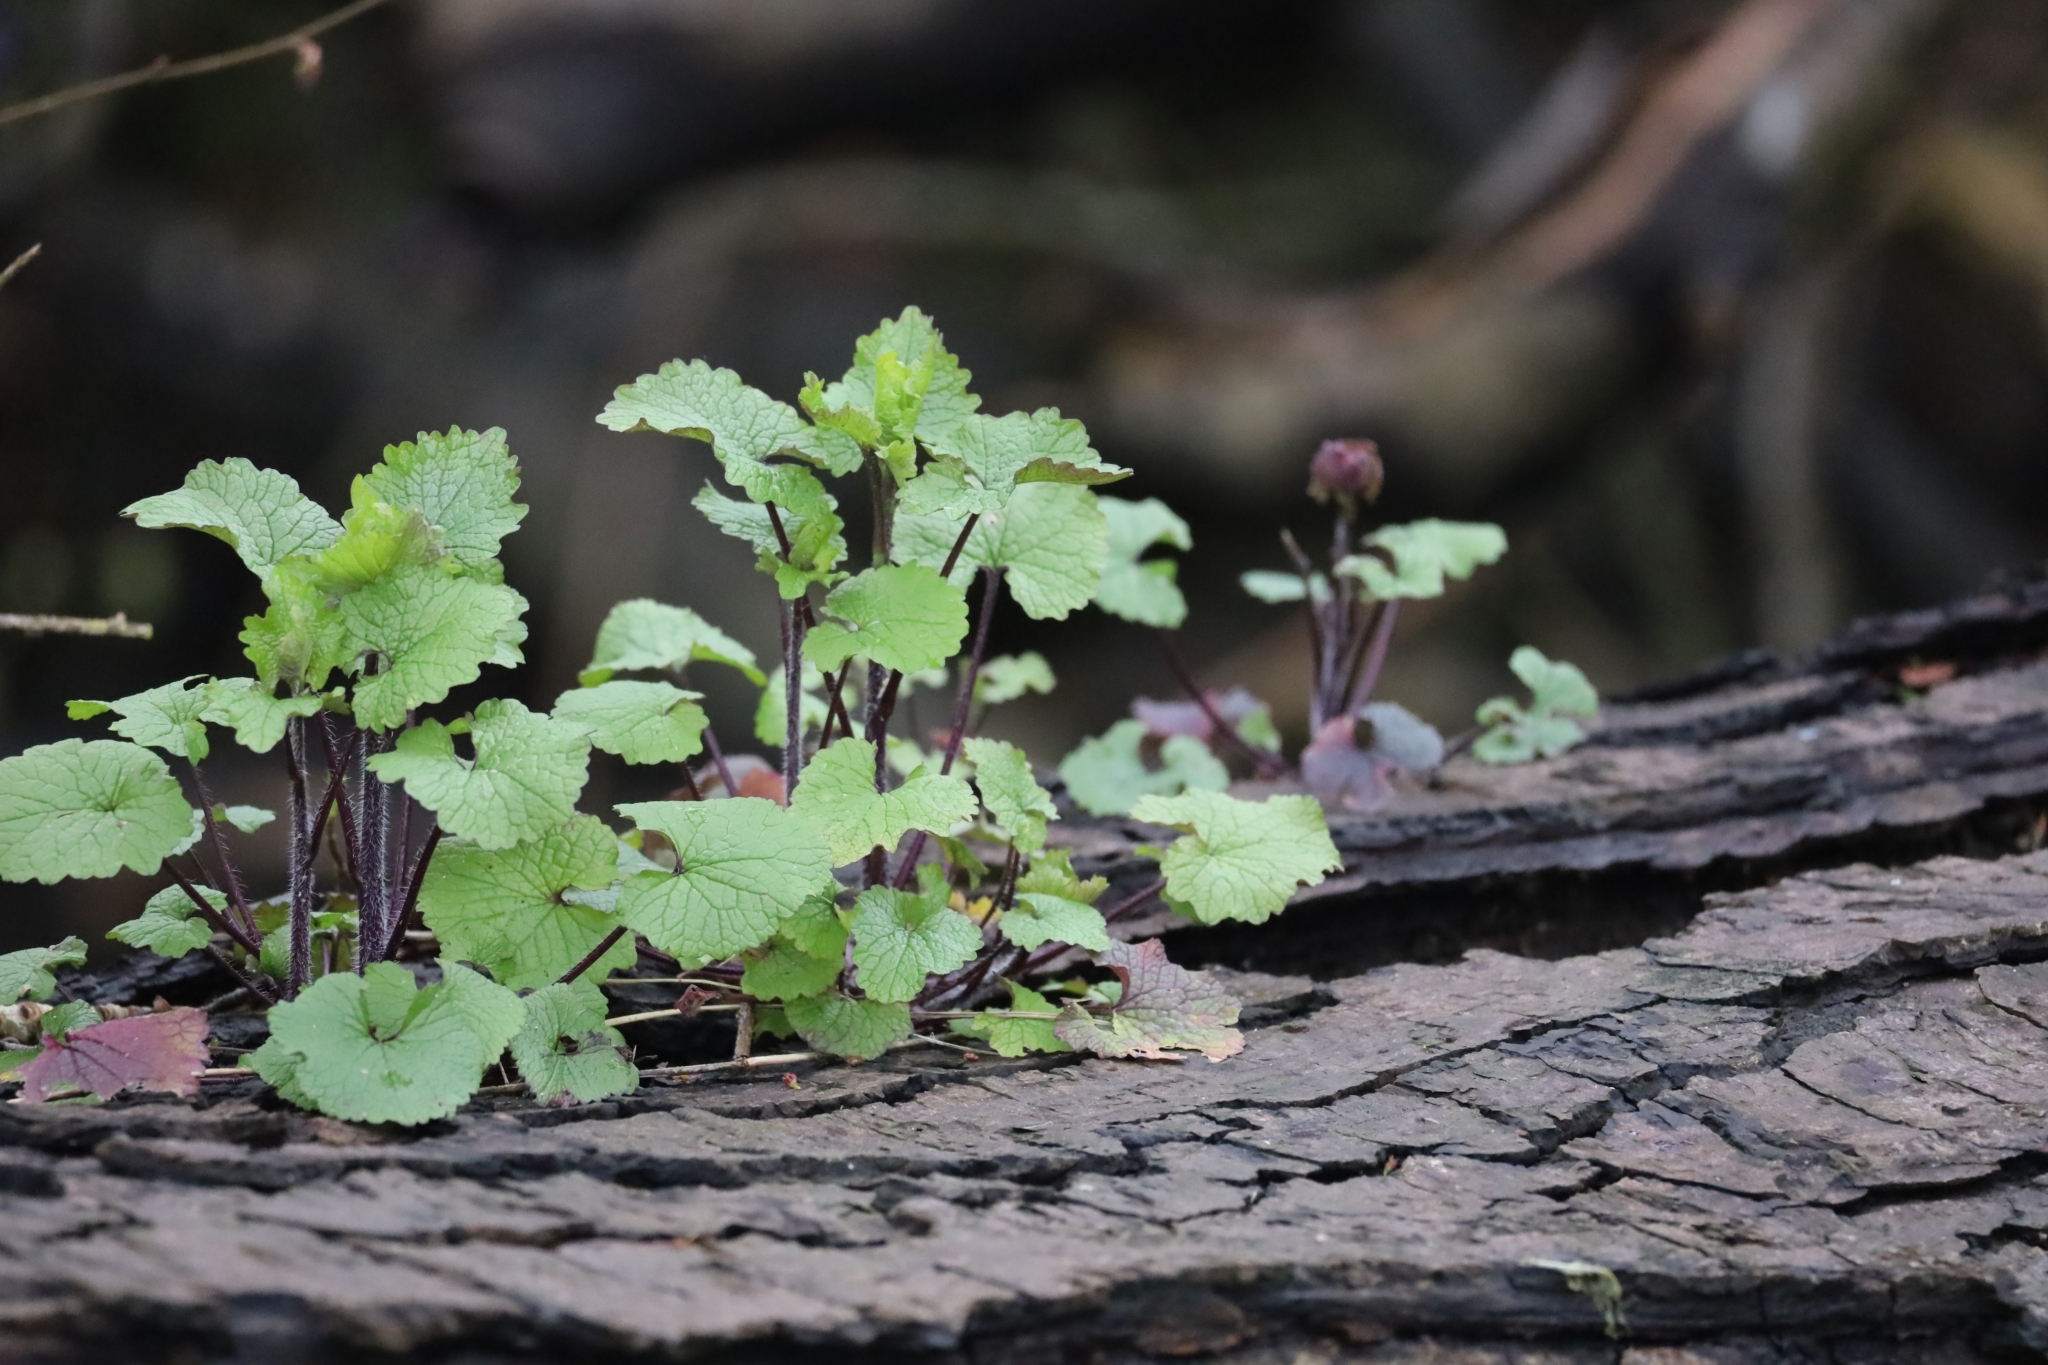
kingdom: Plantae
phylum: Tracheophyta
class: Magnoliopsida
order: Brassicales
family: Brassicaceae
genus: Alliaria
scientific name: Alliaria petiolata
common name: Garlic mustard
